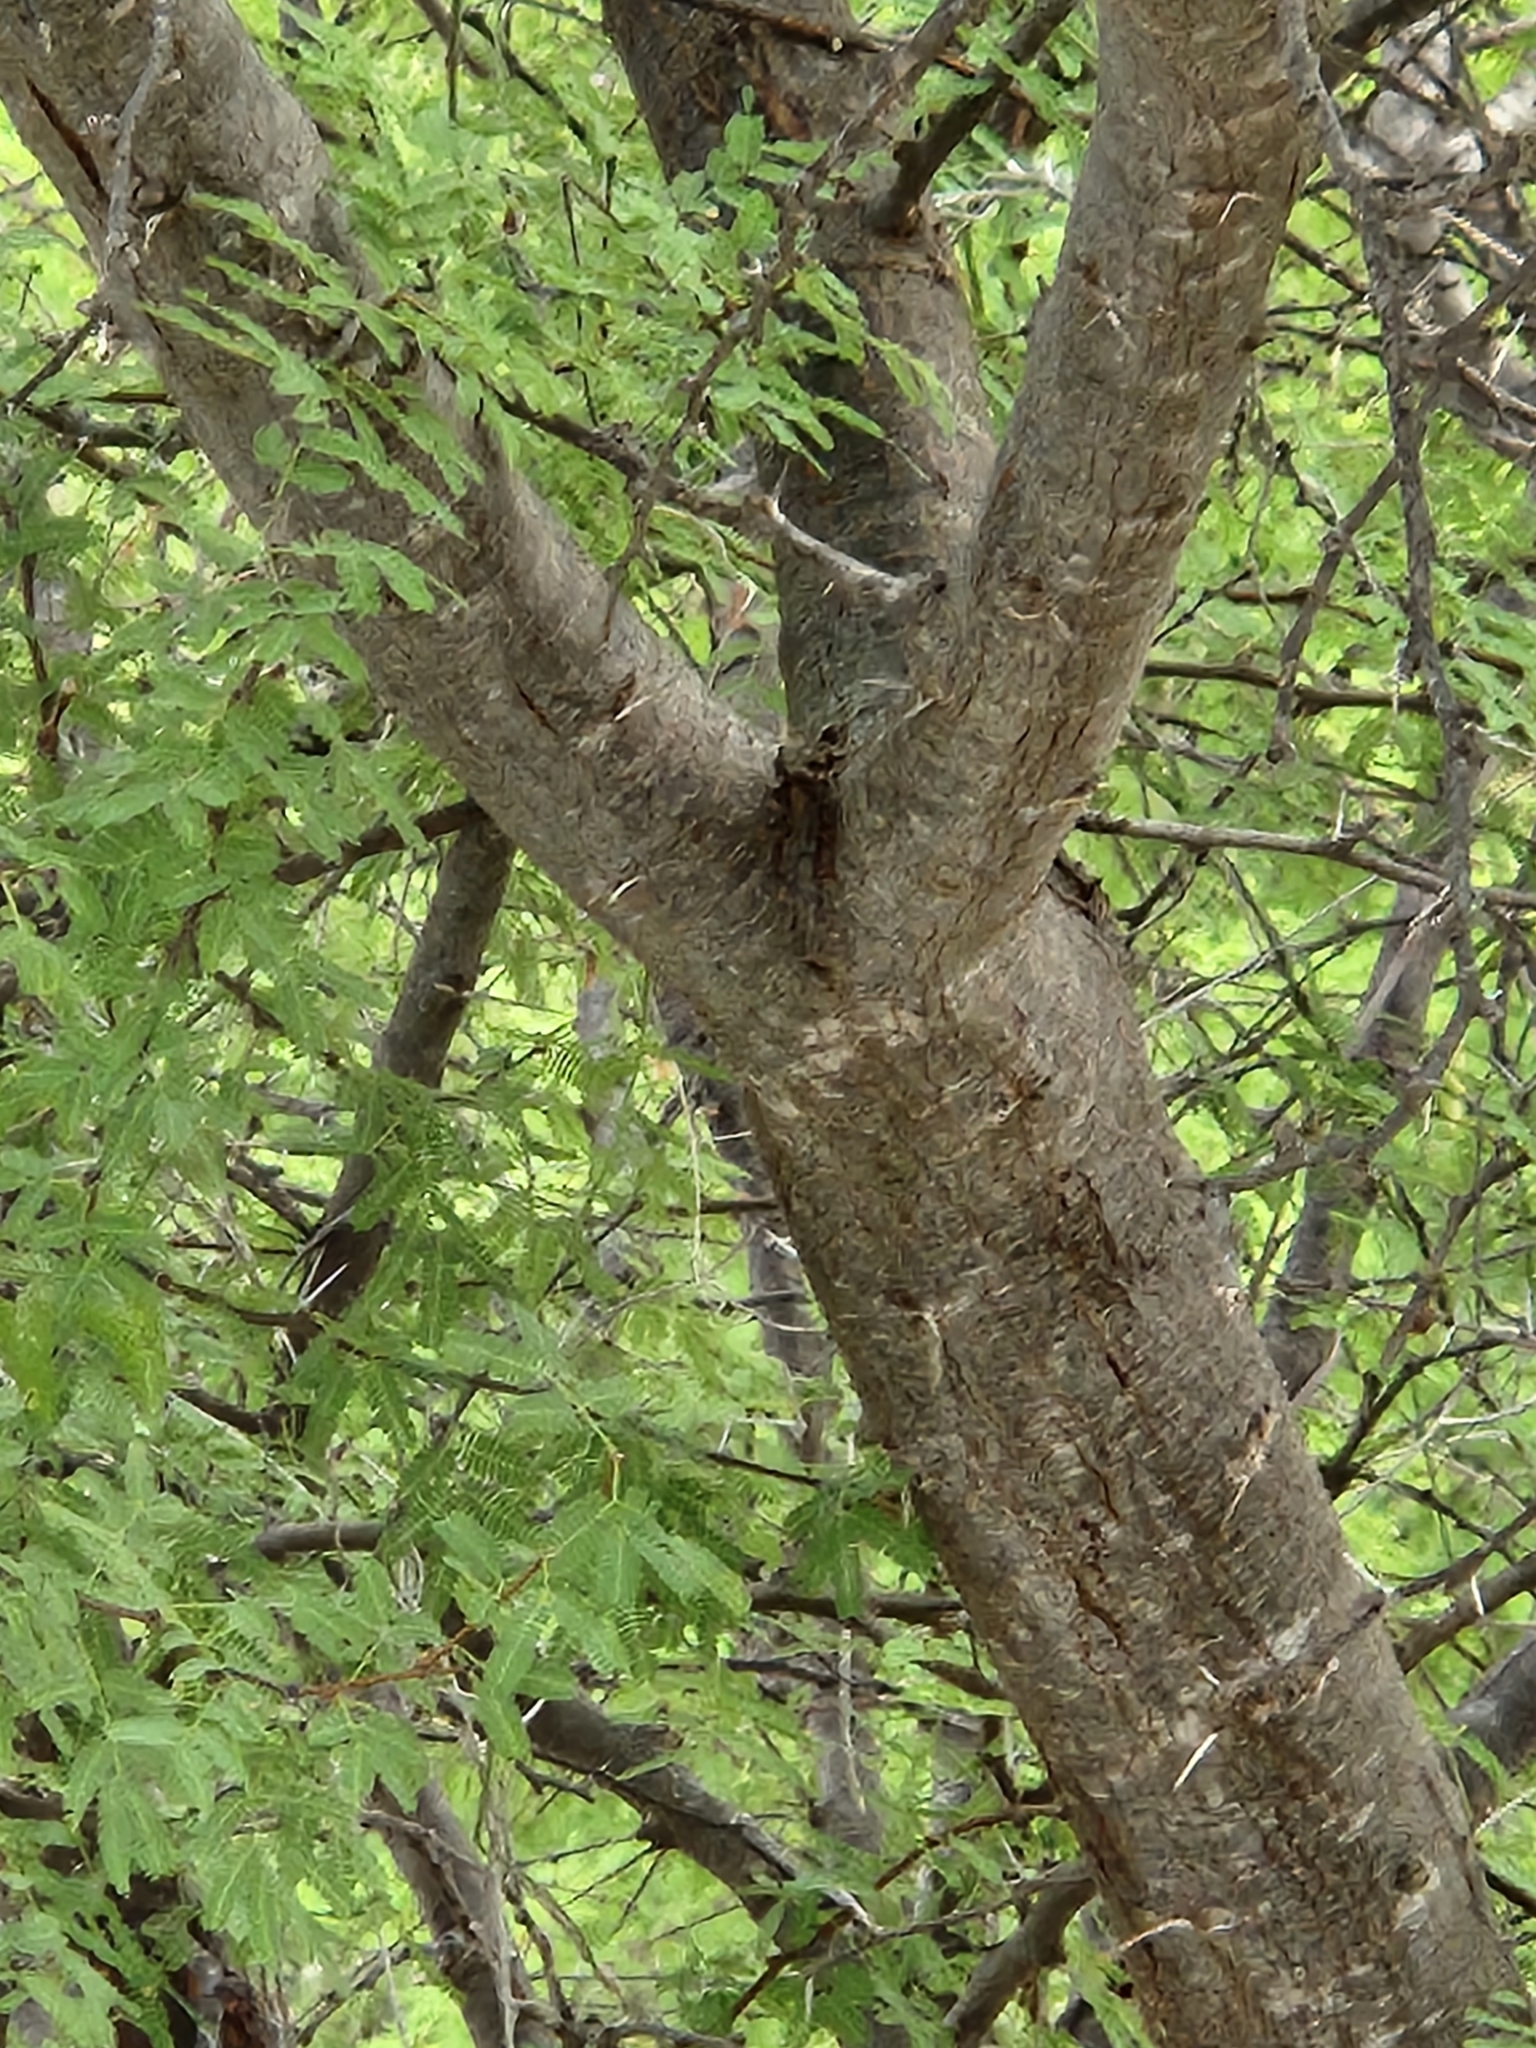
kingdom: Plantae
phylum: Tracheophyta
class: Magnoliopsida
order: Fabales
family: Fabaceae
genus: Vachellia
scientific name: Vachellia farnesiana
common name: Sweet acacia
